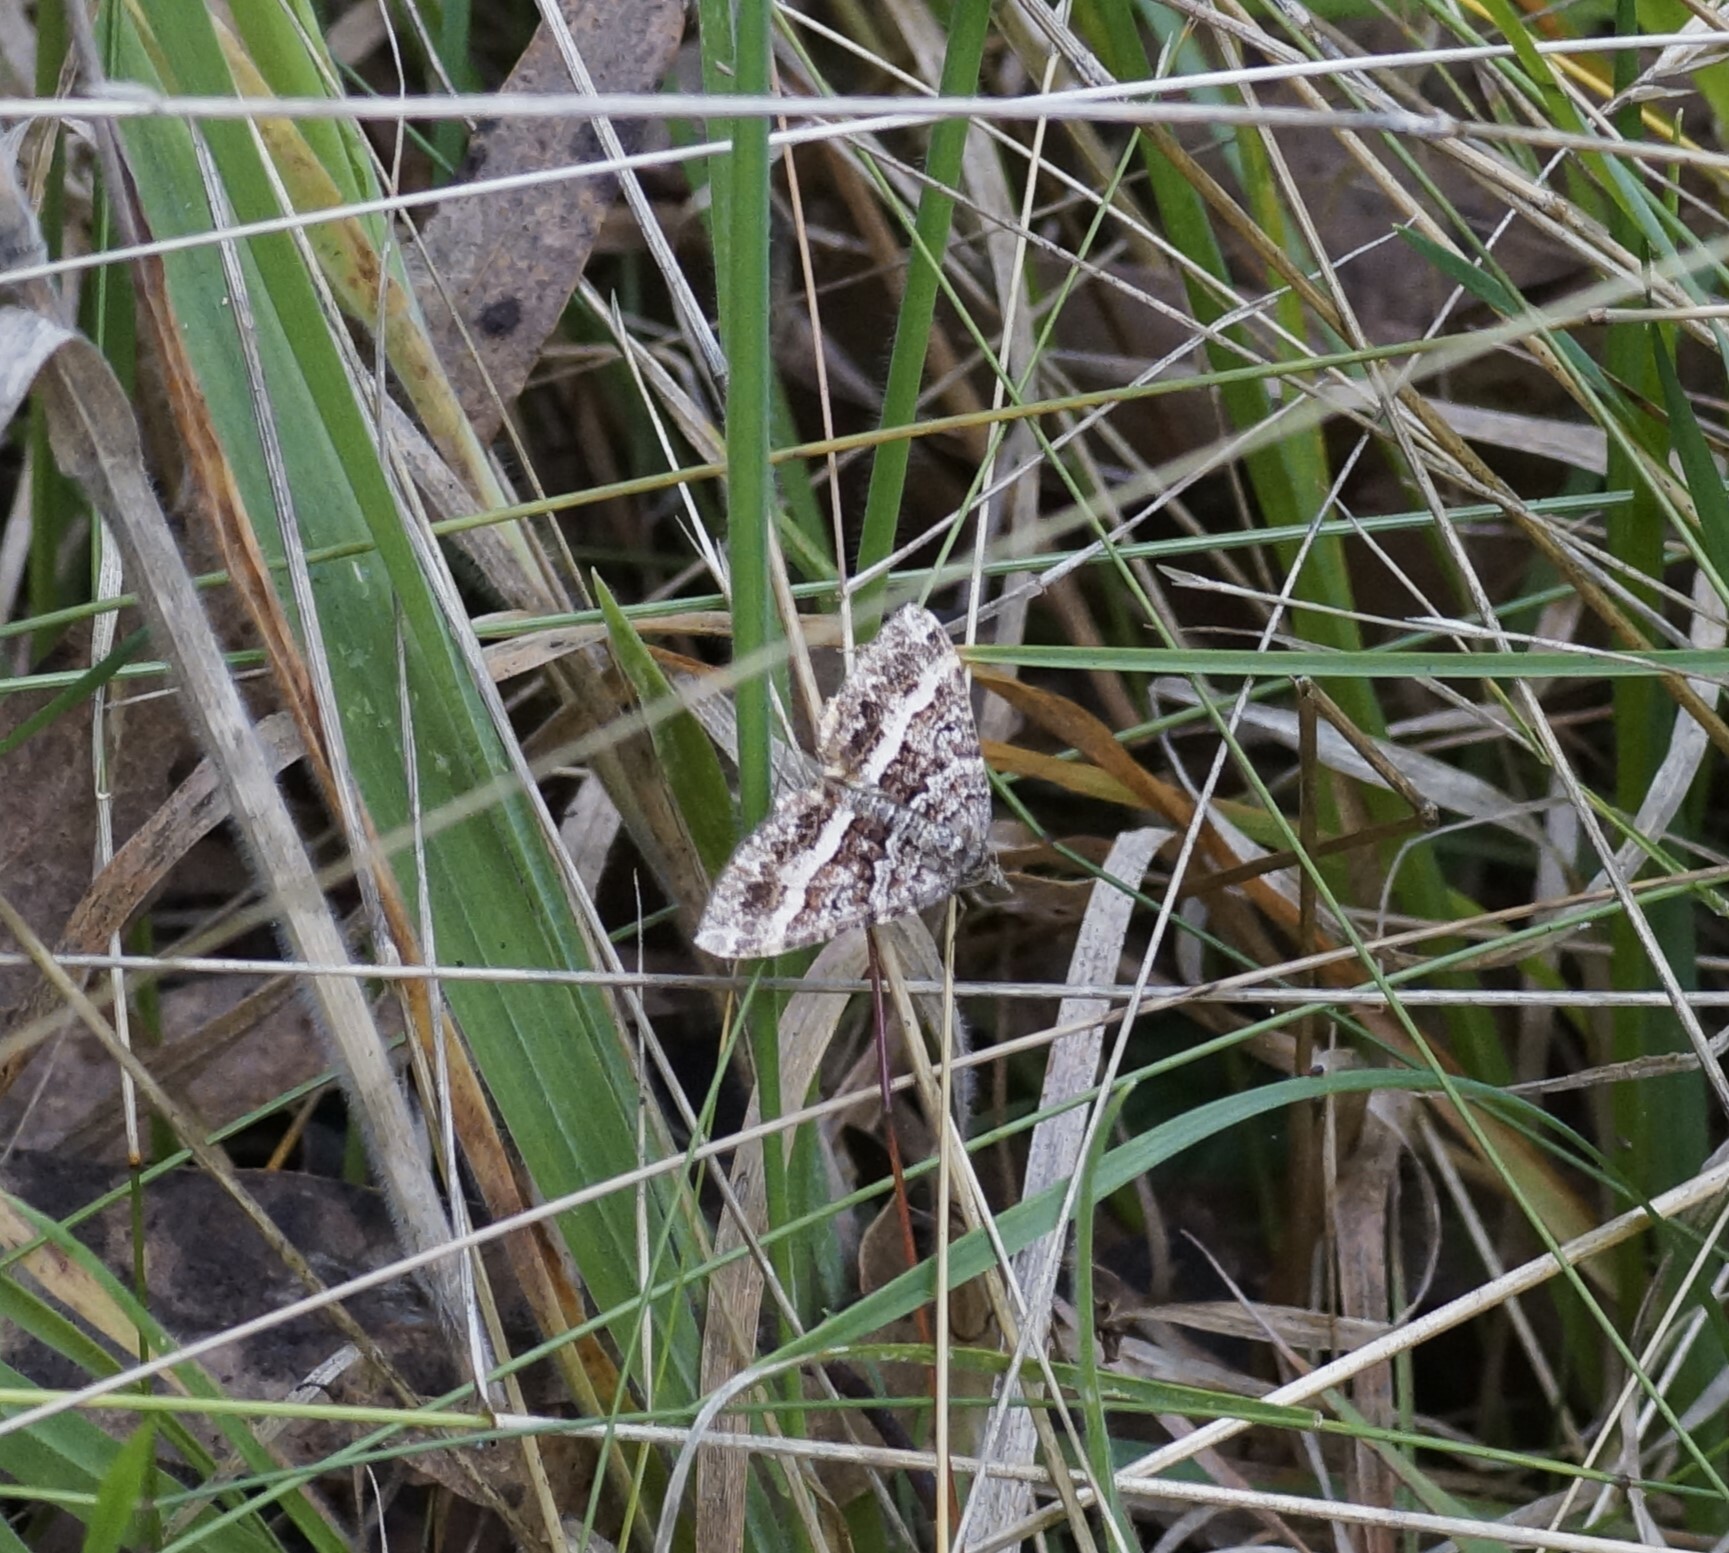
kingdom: Animalia
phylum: Arthropoda
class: Insecta
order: Lepidoptera
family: Geometridae
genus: Chrysolarentia
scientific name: Chrysolarentia vicissata
